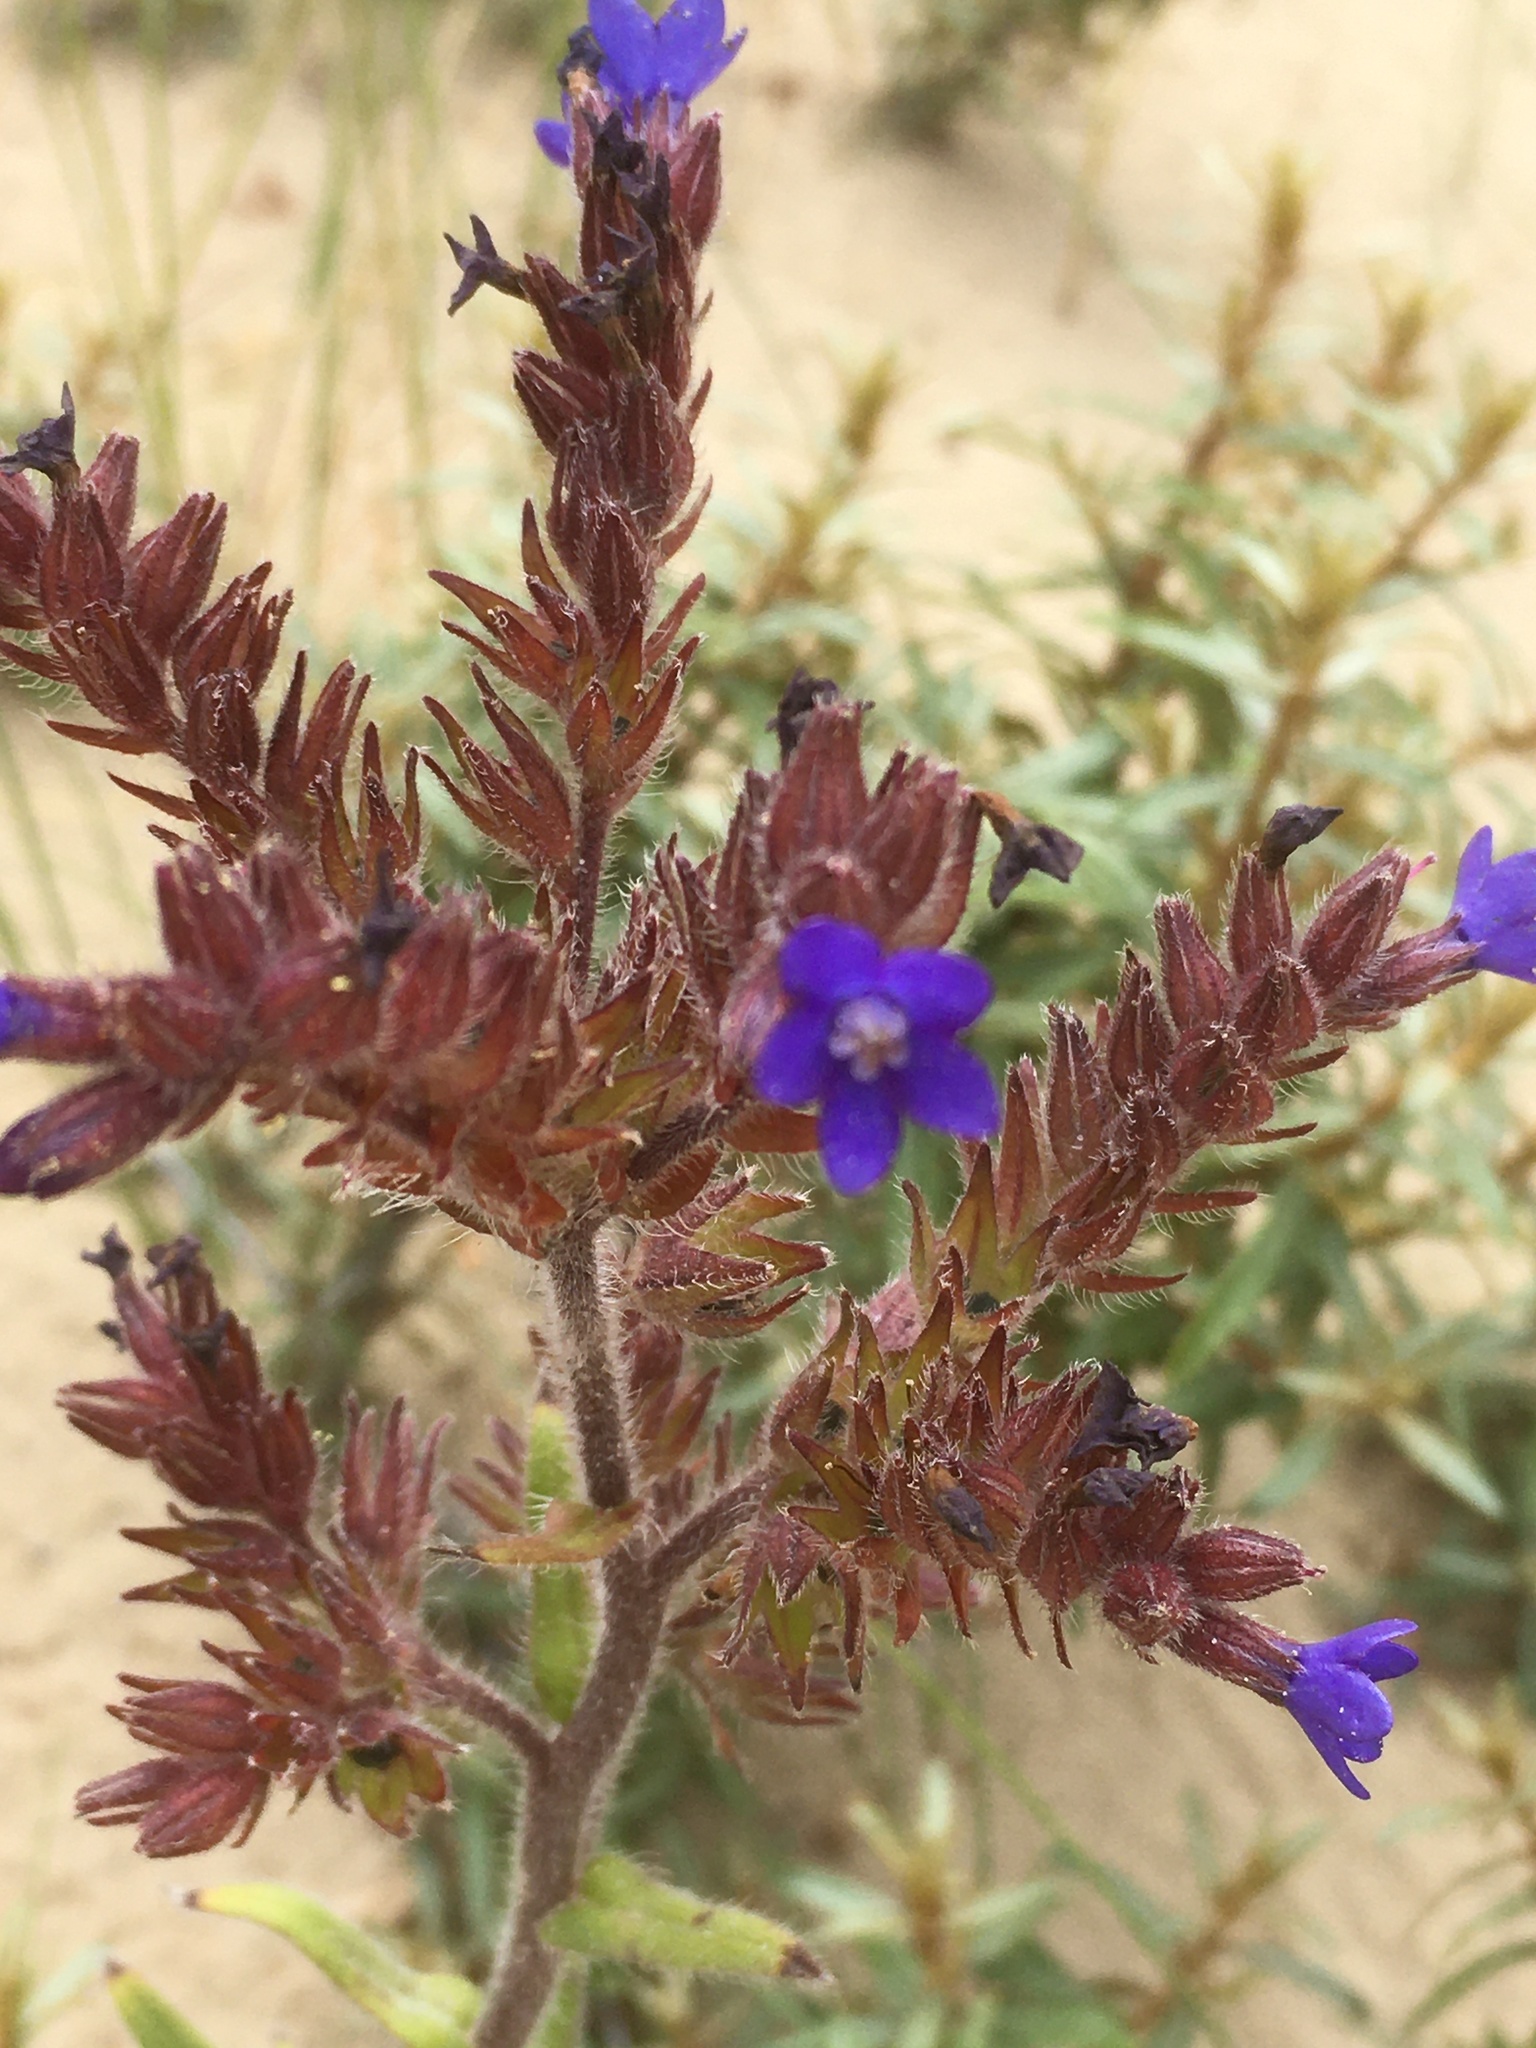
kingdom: Plantae
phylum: Tracheophyta
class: Magnoliopsida
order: Boraginales
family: Boraginaceae
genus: Anchusa
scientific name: Anchusa officinalis
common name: Alkanet
